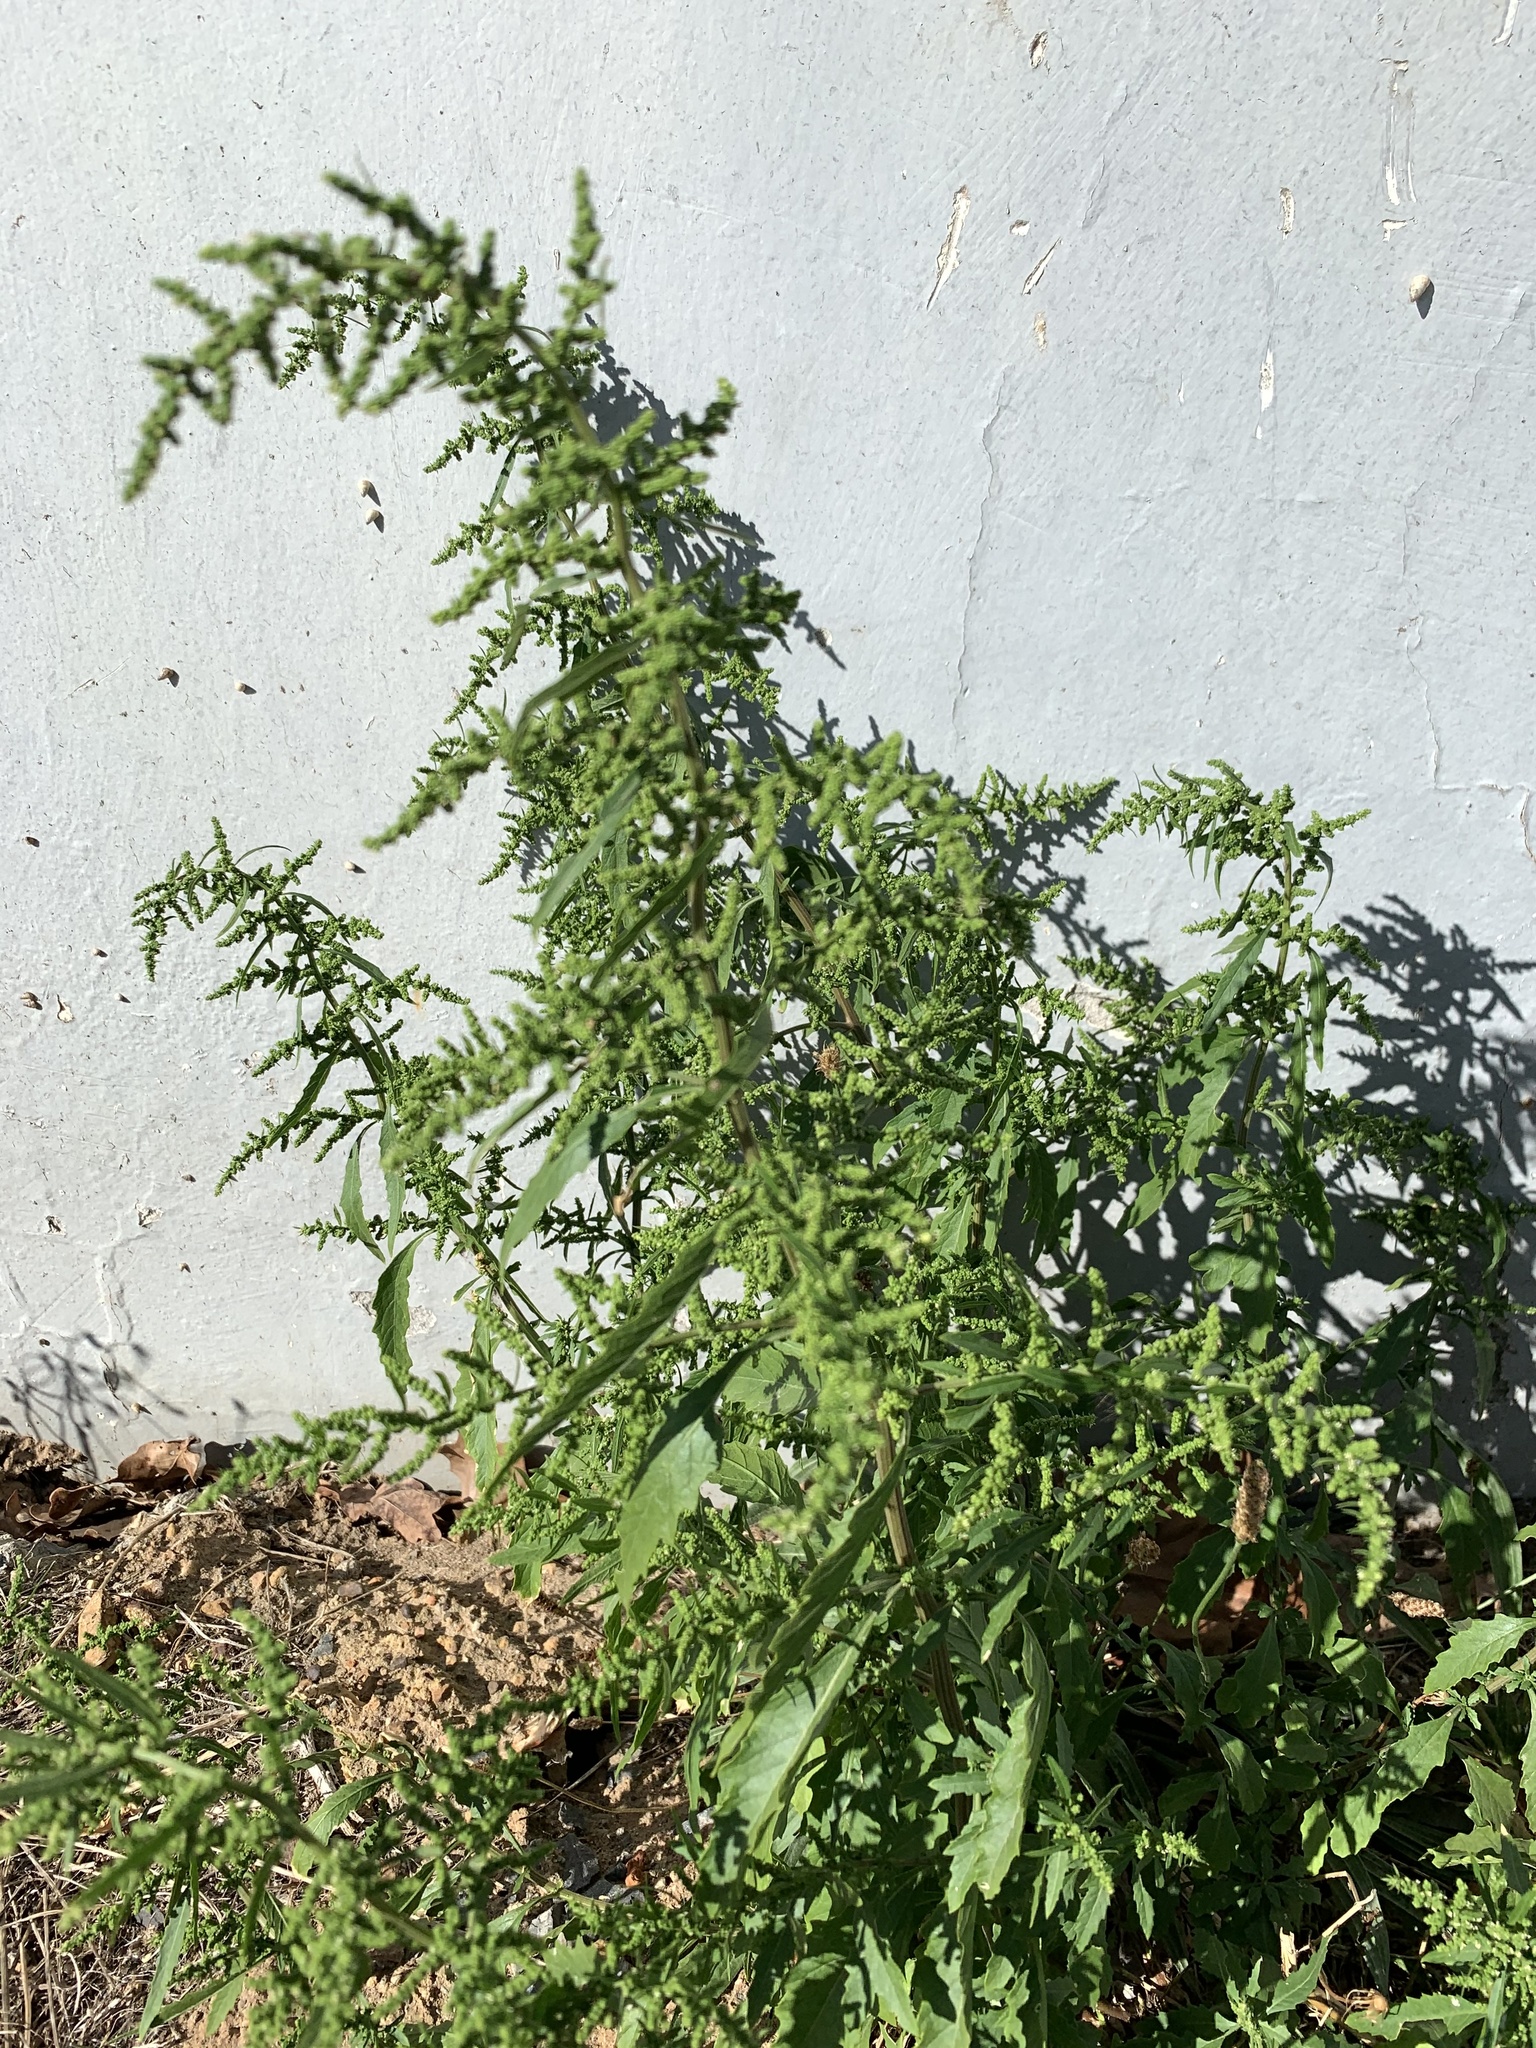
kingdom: Plantae
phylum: Tracheophyta
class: Magnoliopsida
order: Caryophyllales
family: Amaranthaceae
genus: Dysphania
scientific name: Dysphania ambrosioides
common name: Wormseed
